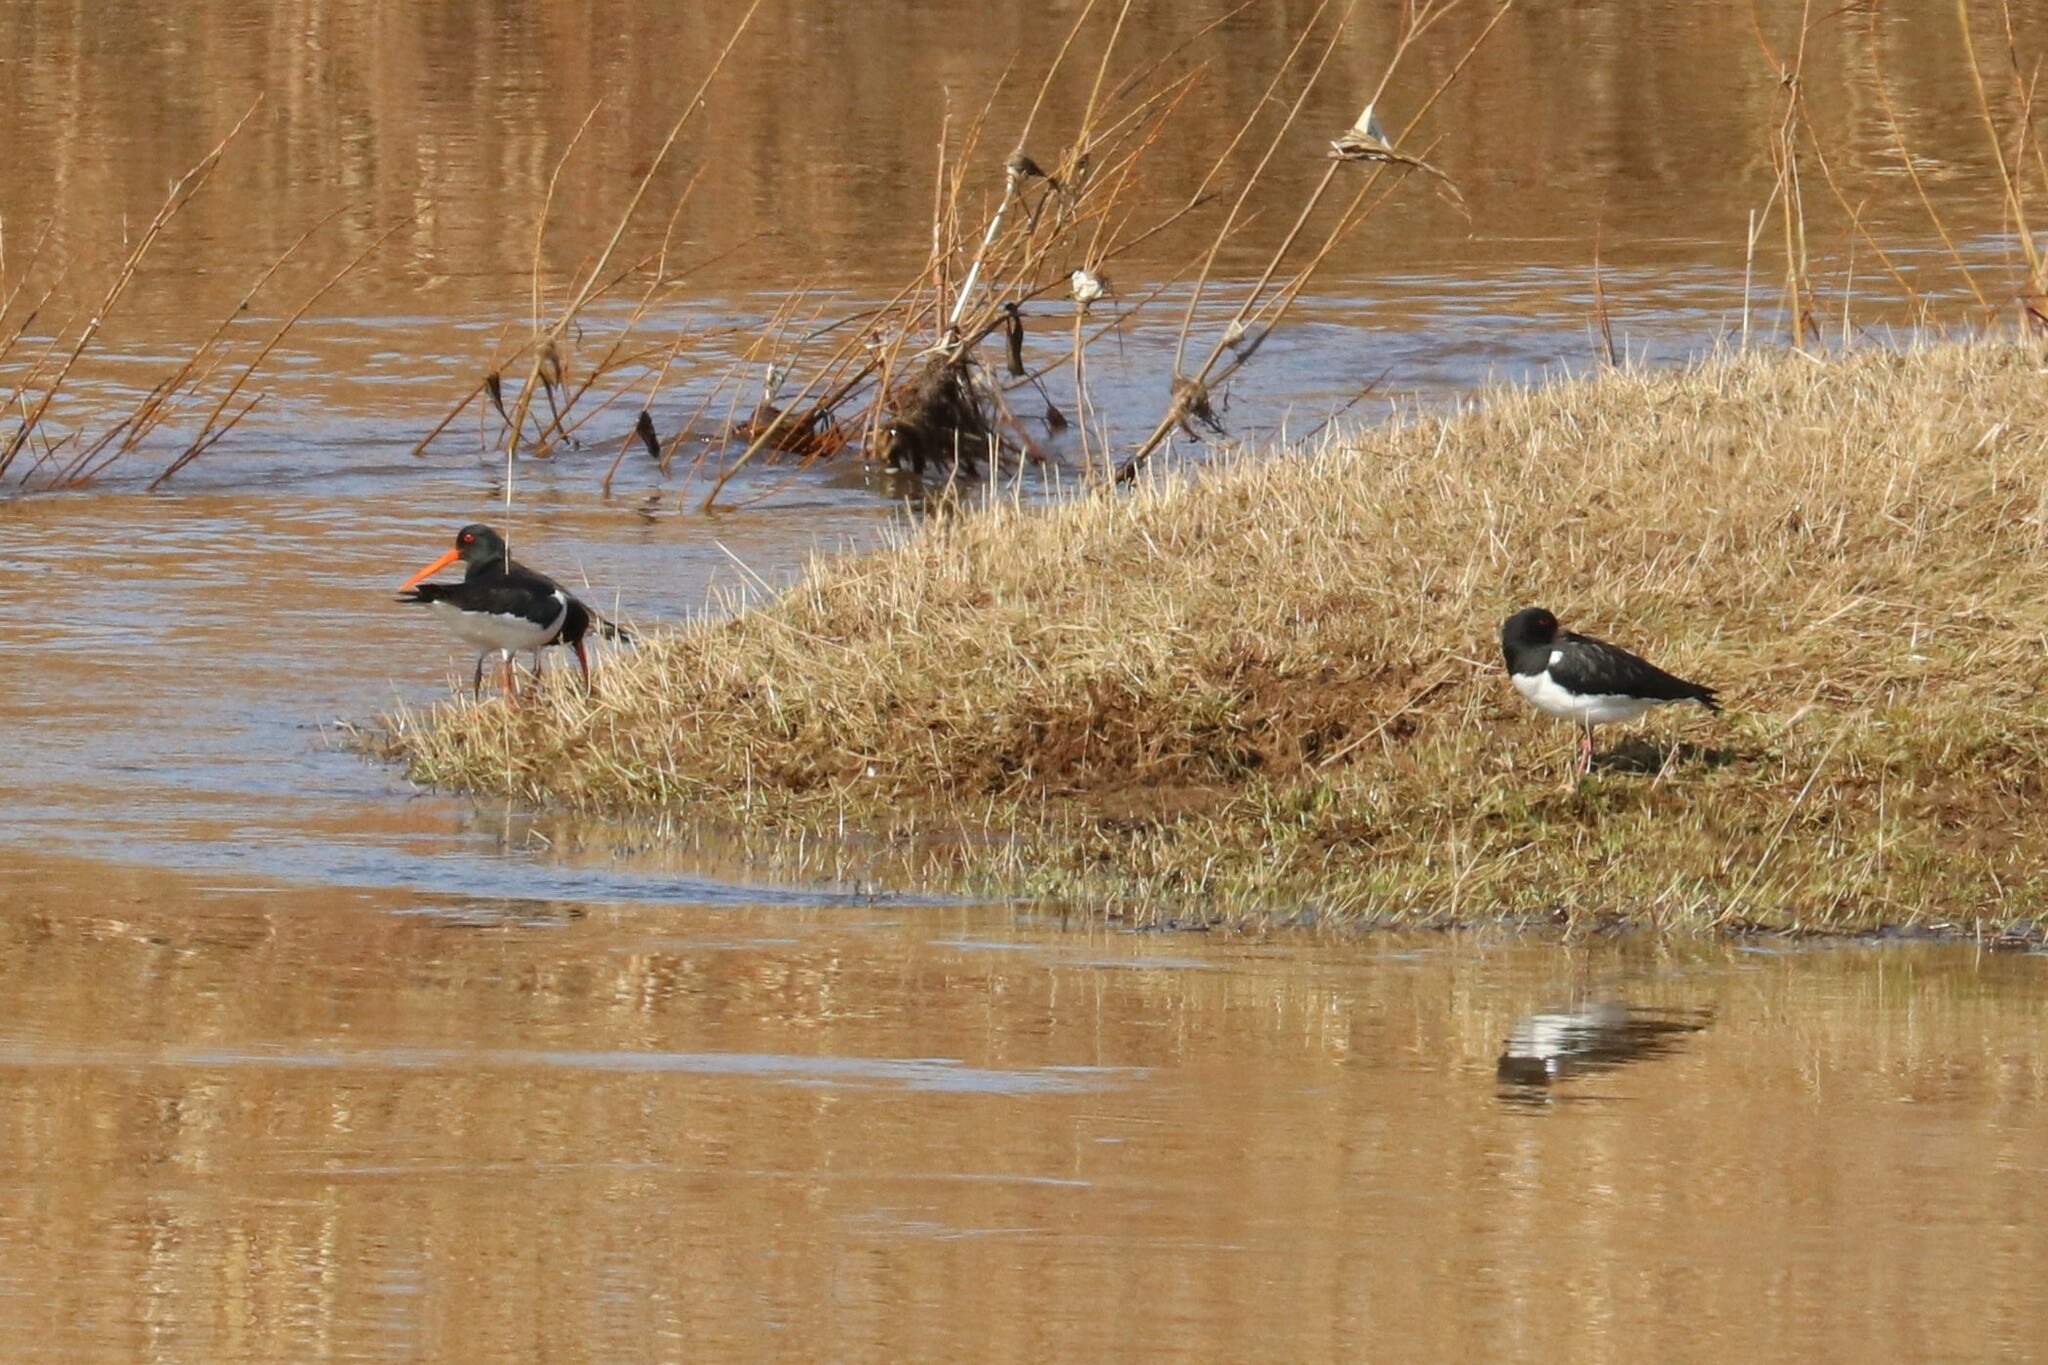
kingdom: Animalia
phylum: Chordata
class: Aves
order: Charadriiformes
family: Haematopodidae
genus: Haematopus
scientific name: Haematopus ostralegus
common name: Eurasian oystercatcher
